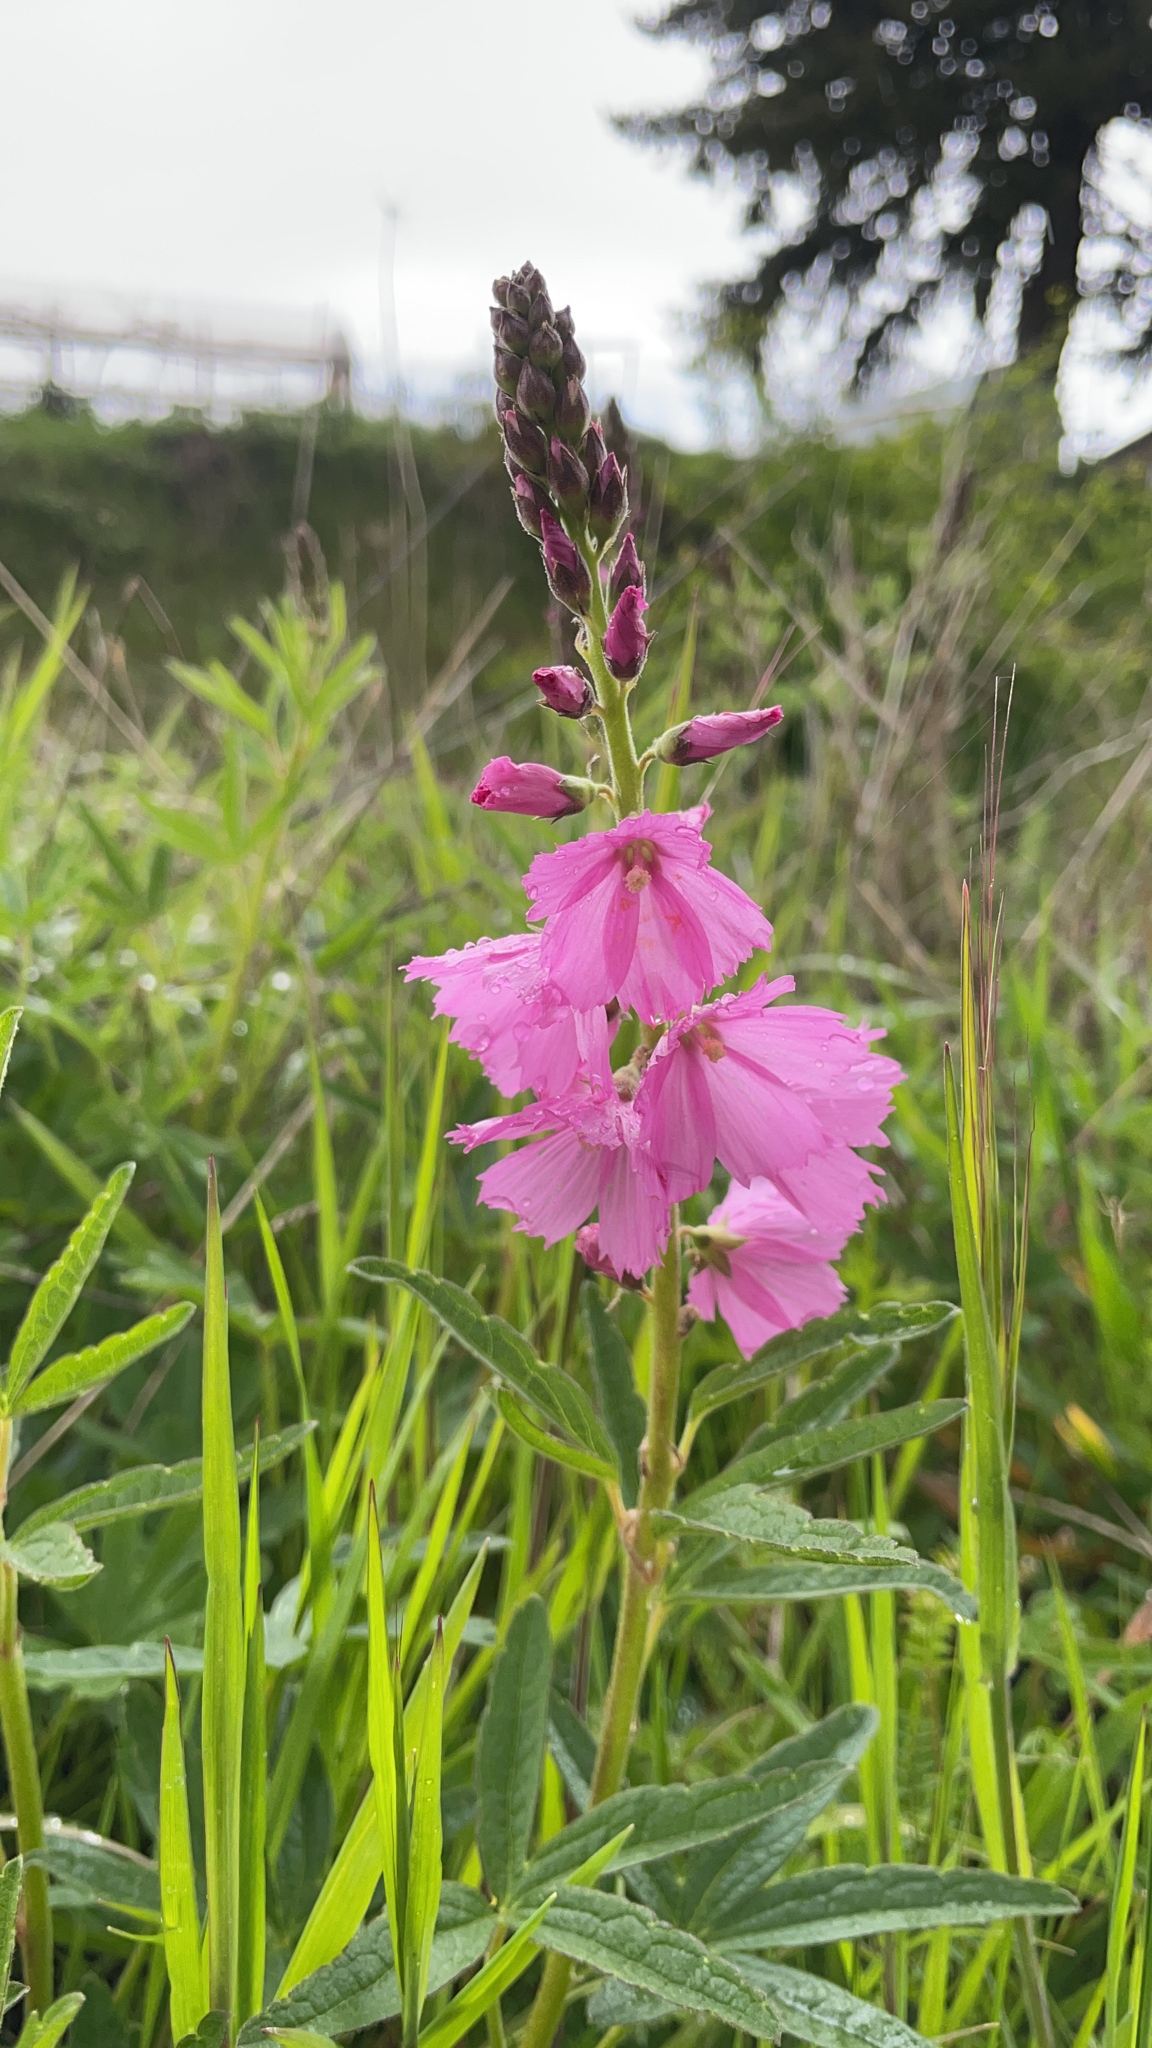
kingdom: Plantae
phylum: Tracheophyta
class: Magnoliopsida
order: Malvales
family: Malvaceae
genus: Sidalcea
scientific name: Sidalcea oregana
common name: Oregon checker-mallow
